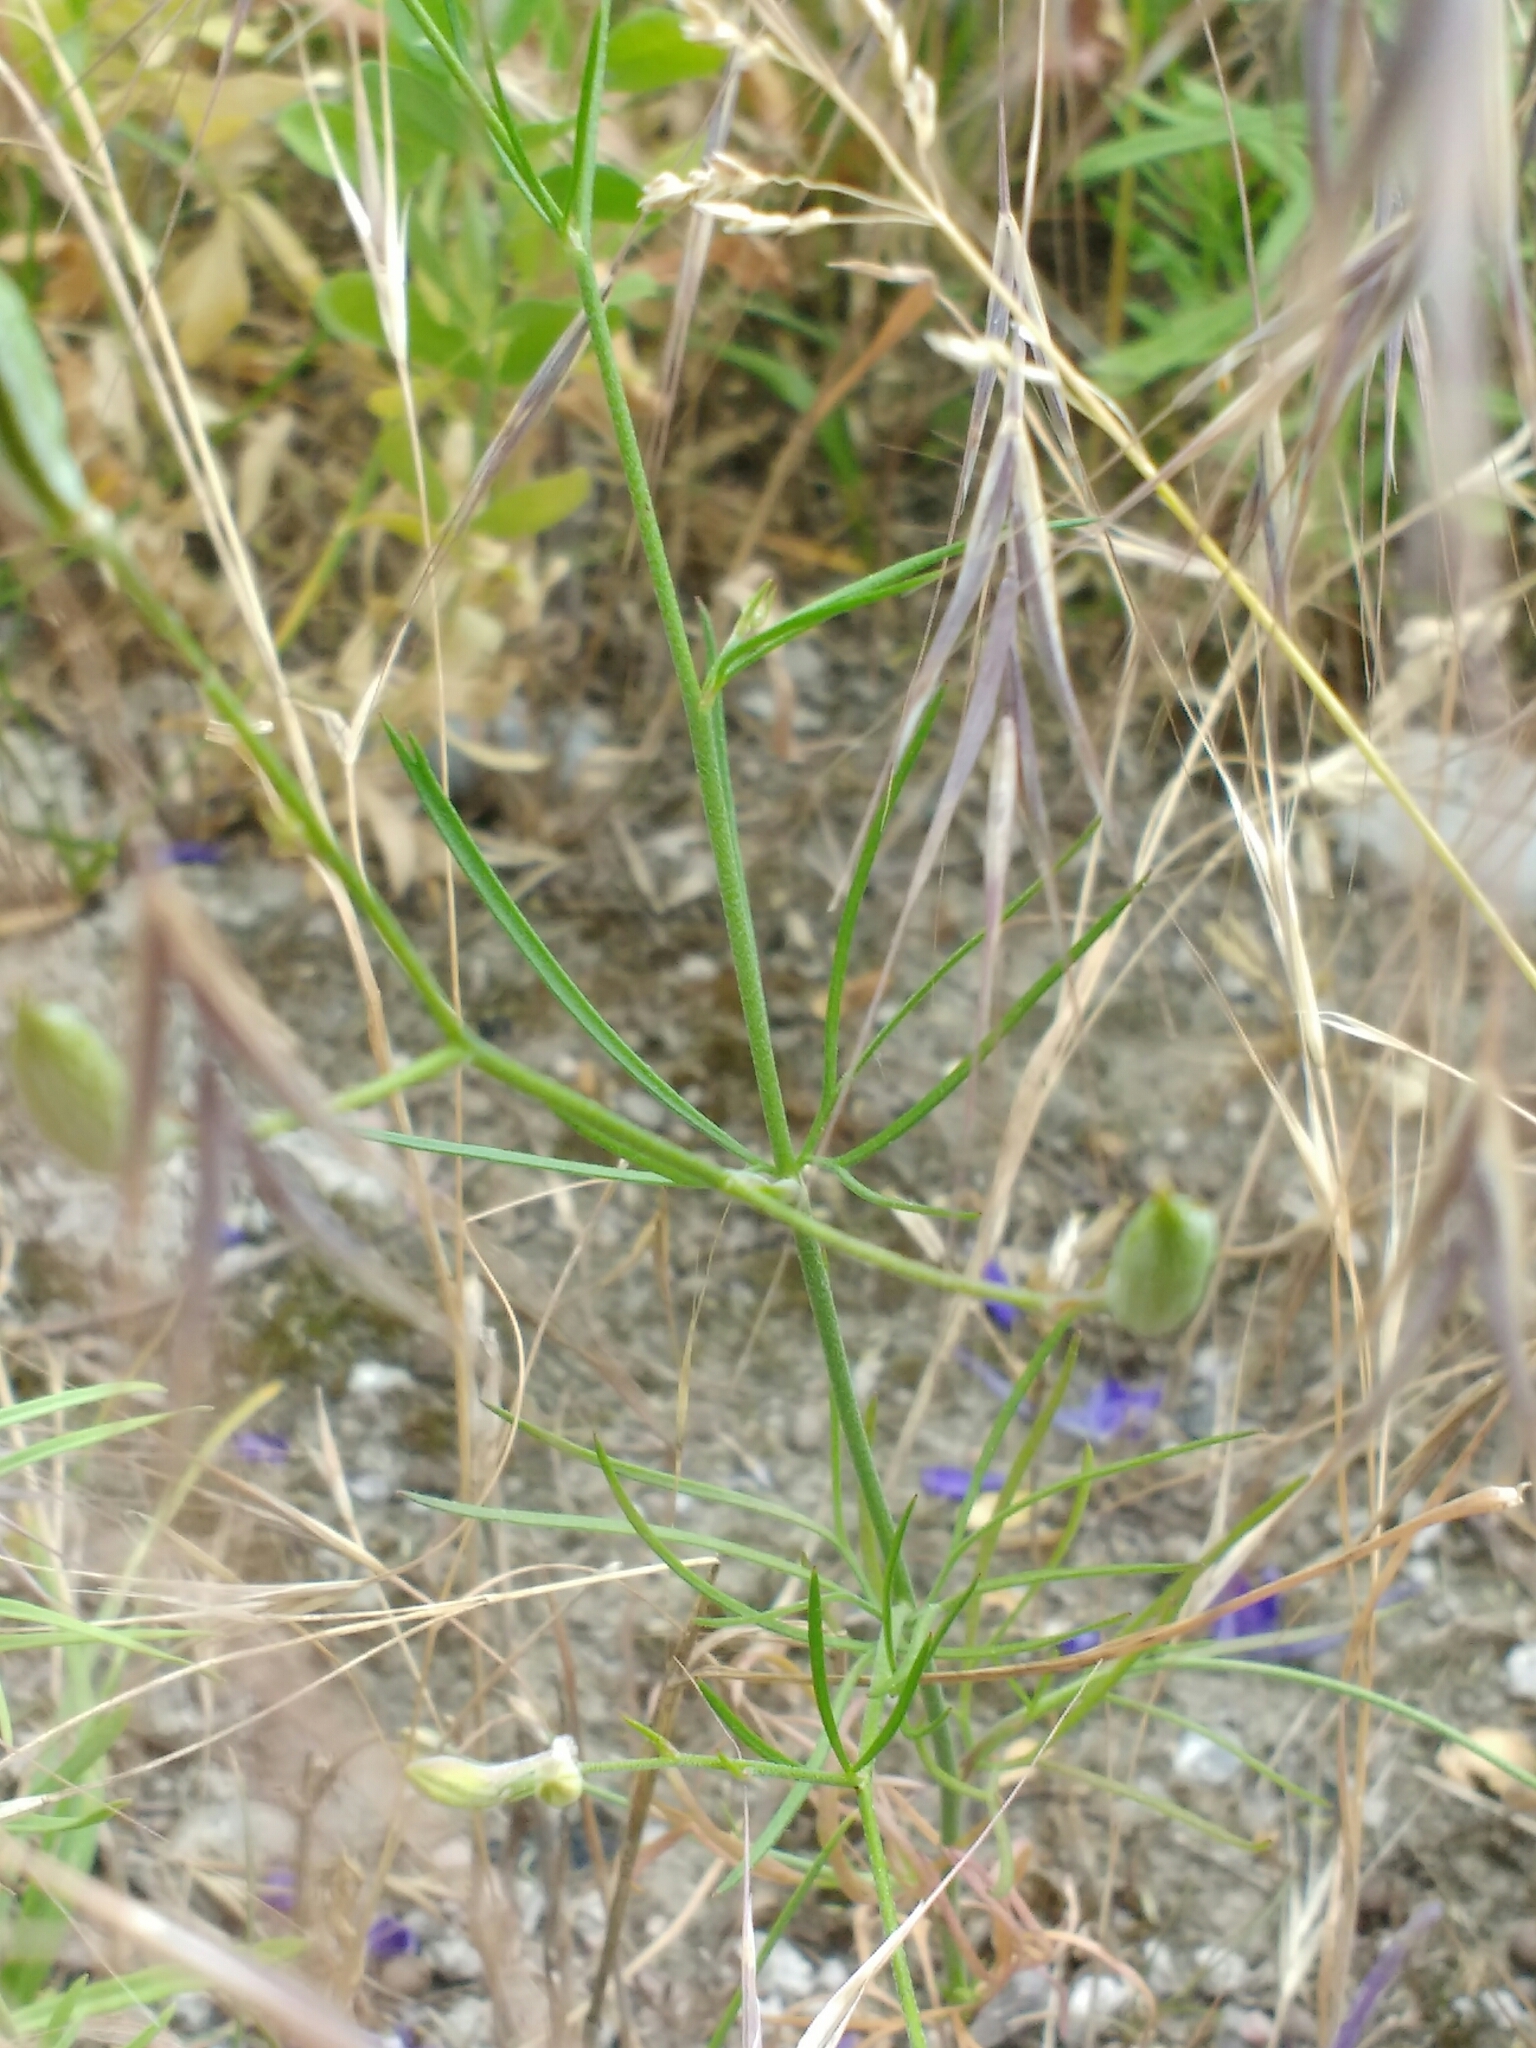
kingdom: Plantae
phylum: Tracheophyta
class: Magnoliopsida
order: Ranunculales
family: Ranunculaceae
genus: Delphinium
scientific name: Delphinium consolida
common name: Branching larkspur
